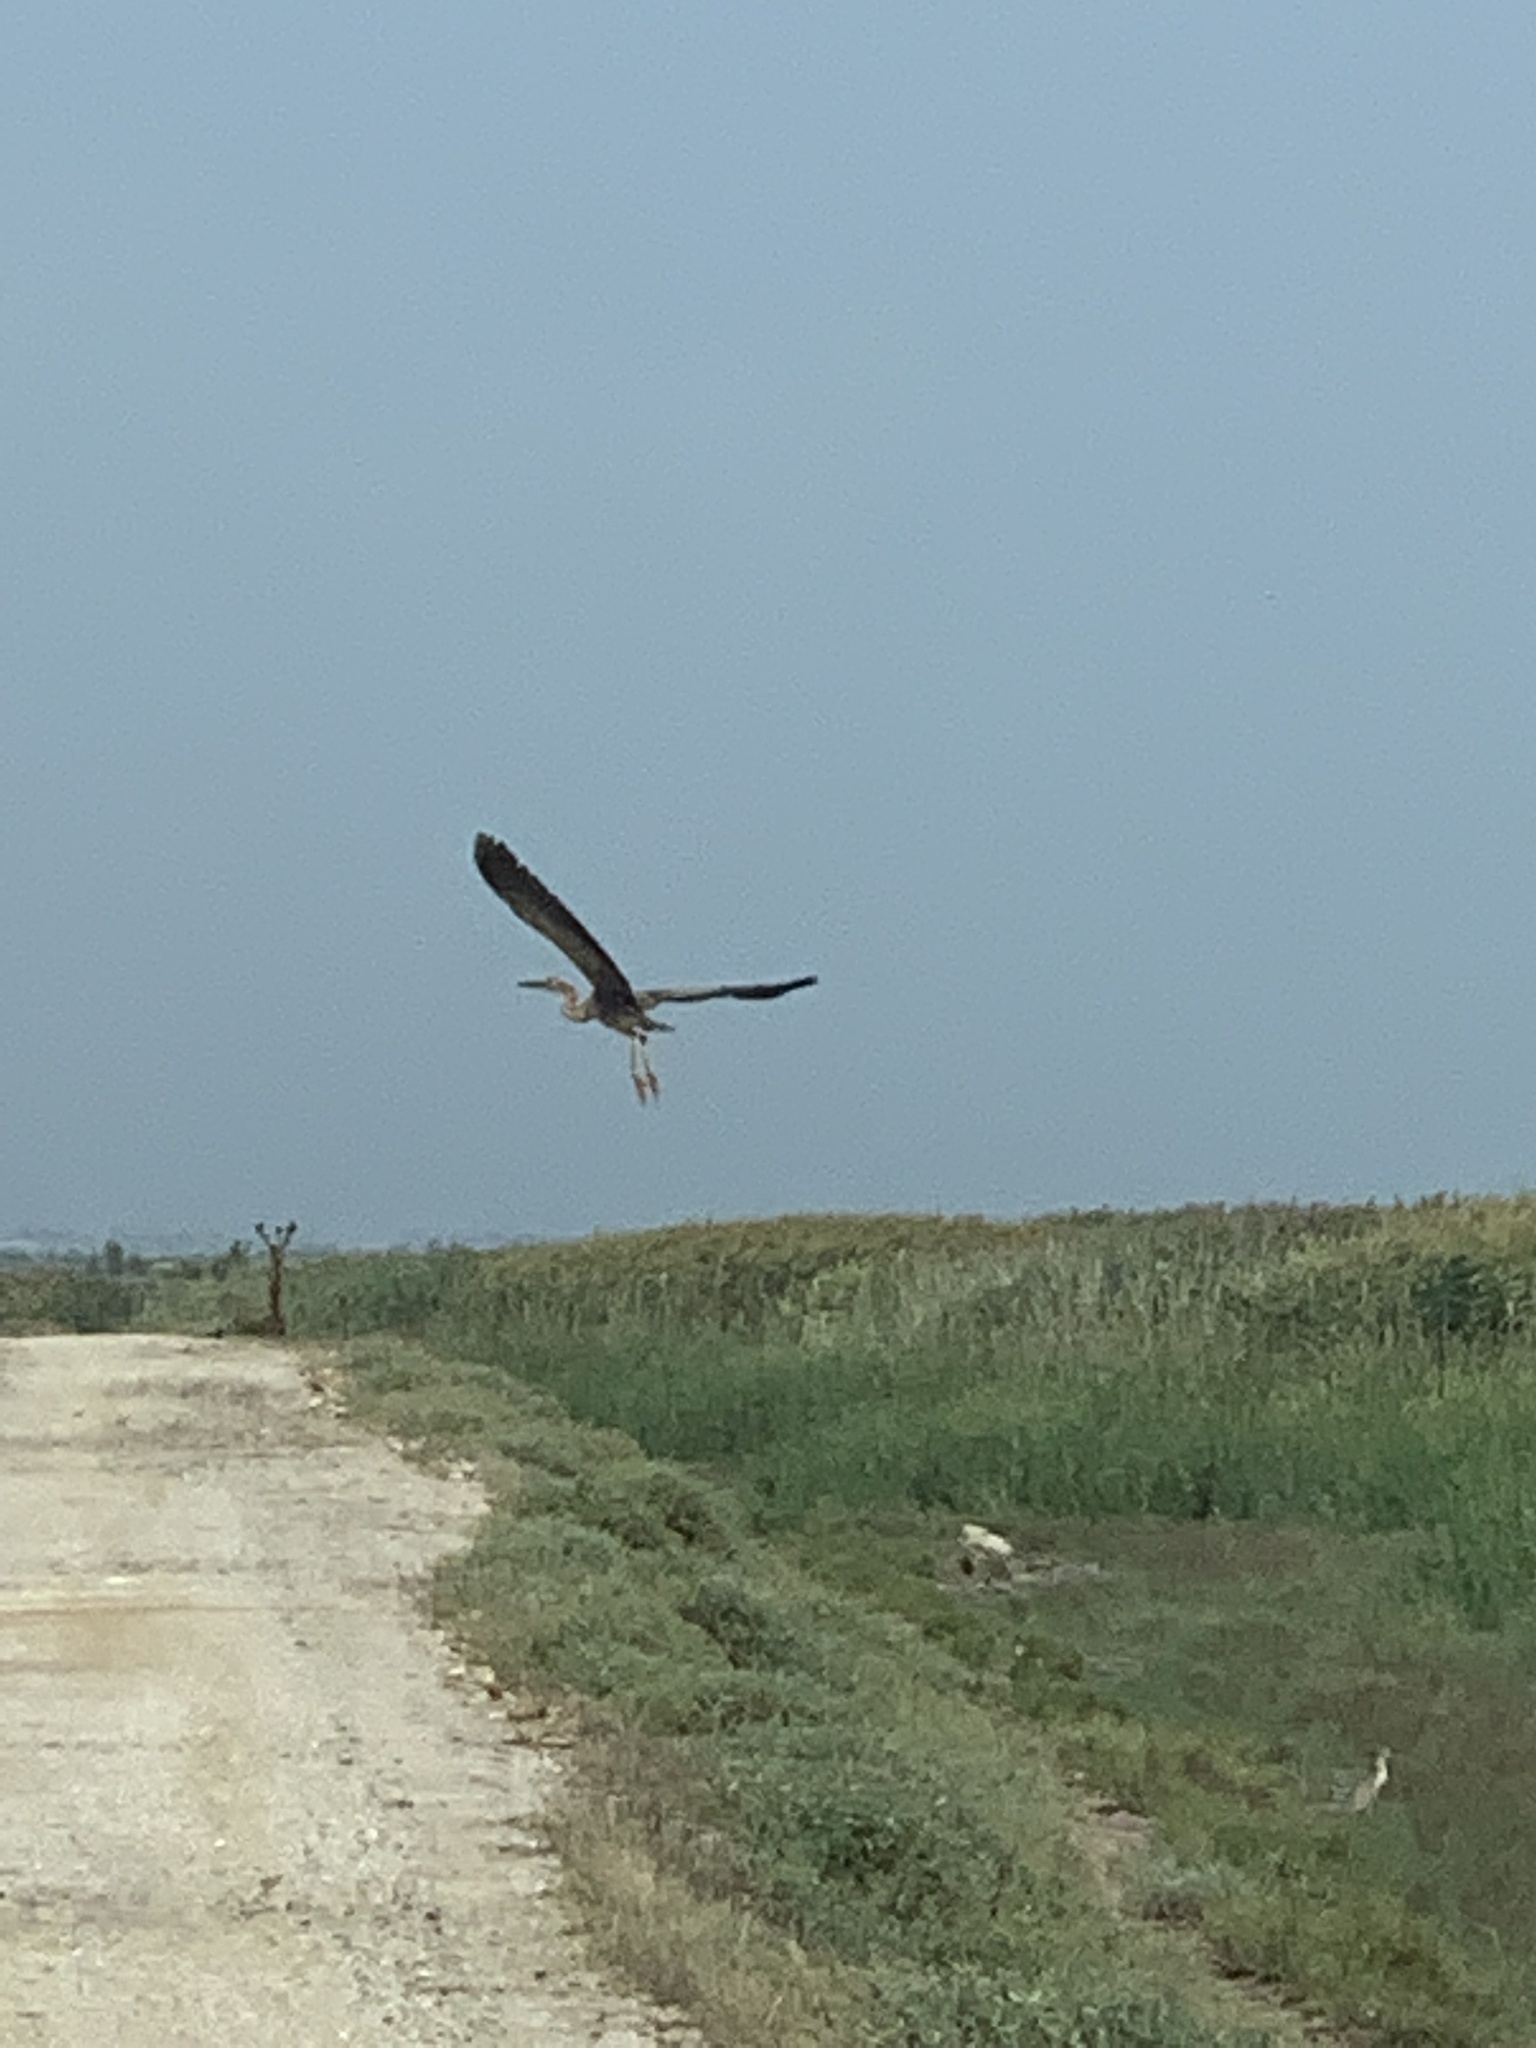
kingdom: Animalia
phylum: Chordata
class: Aves
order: Pelecaniformes
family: Ardeidae
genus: Ardea
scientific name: Ardea purpurea
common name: Purple heron
